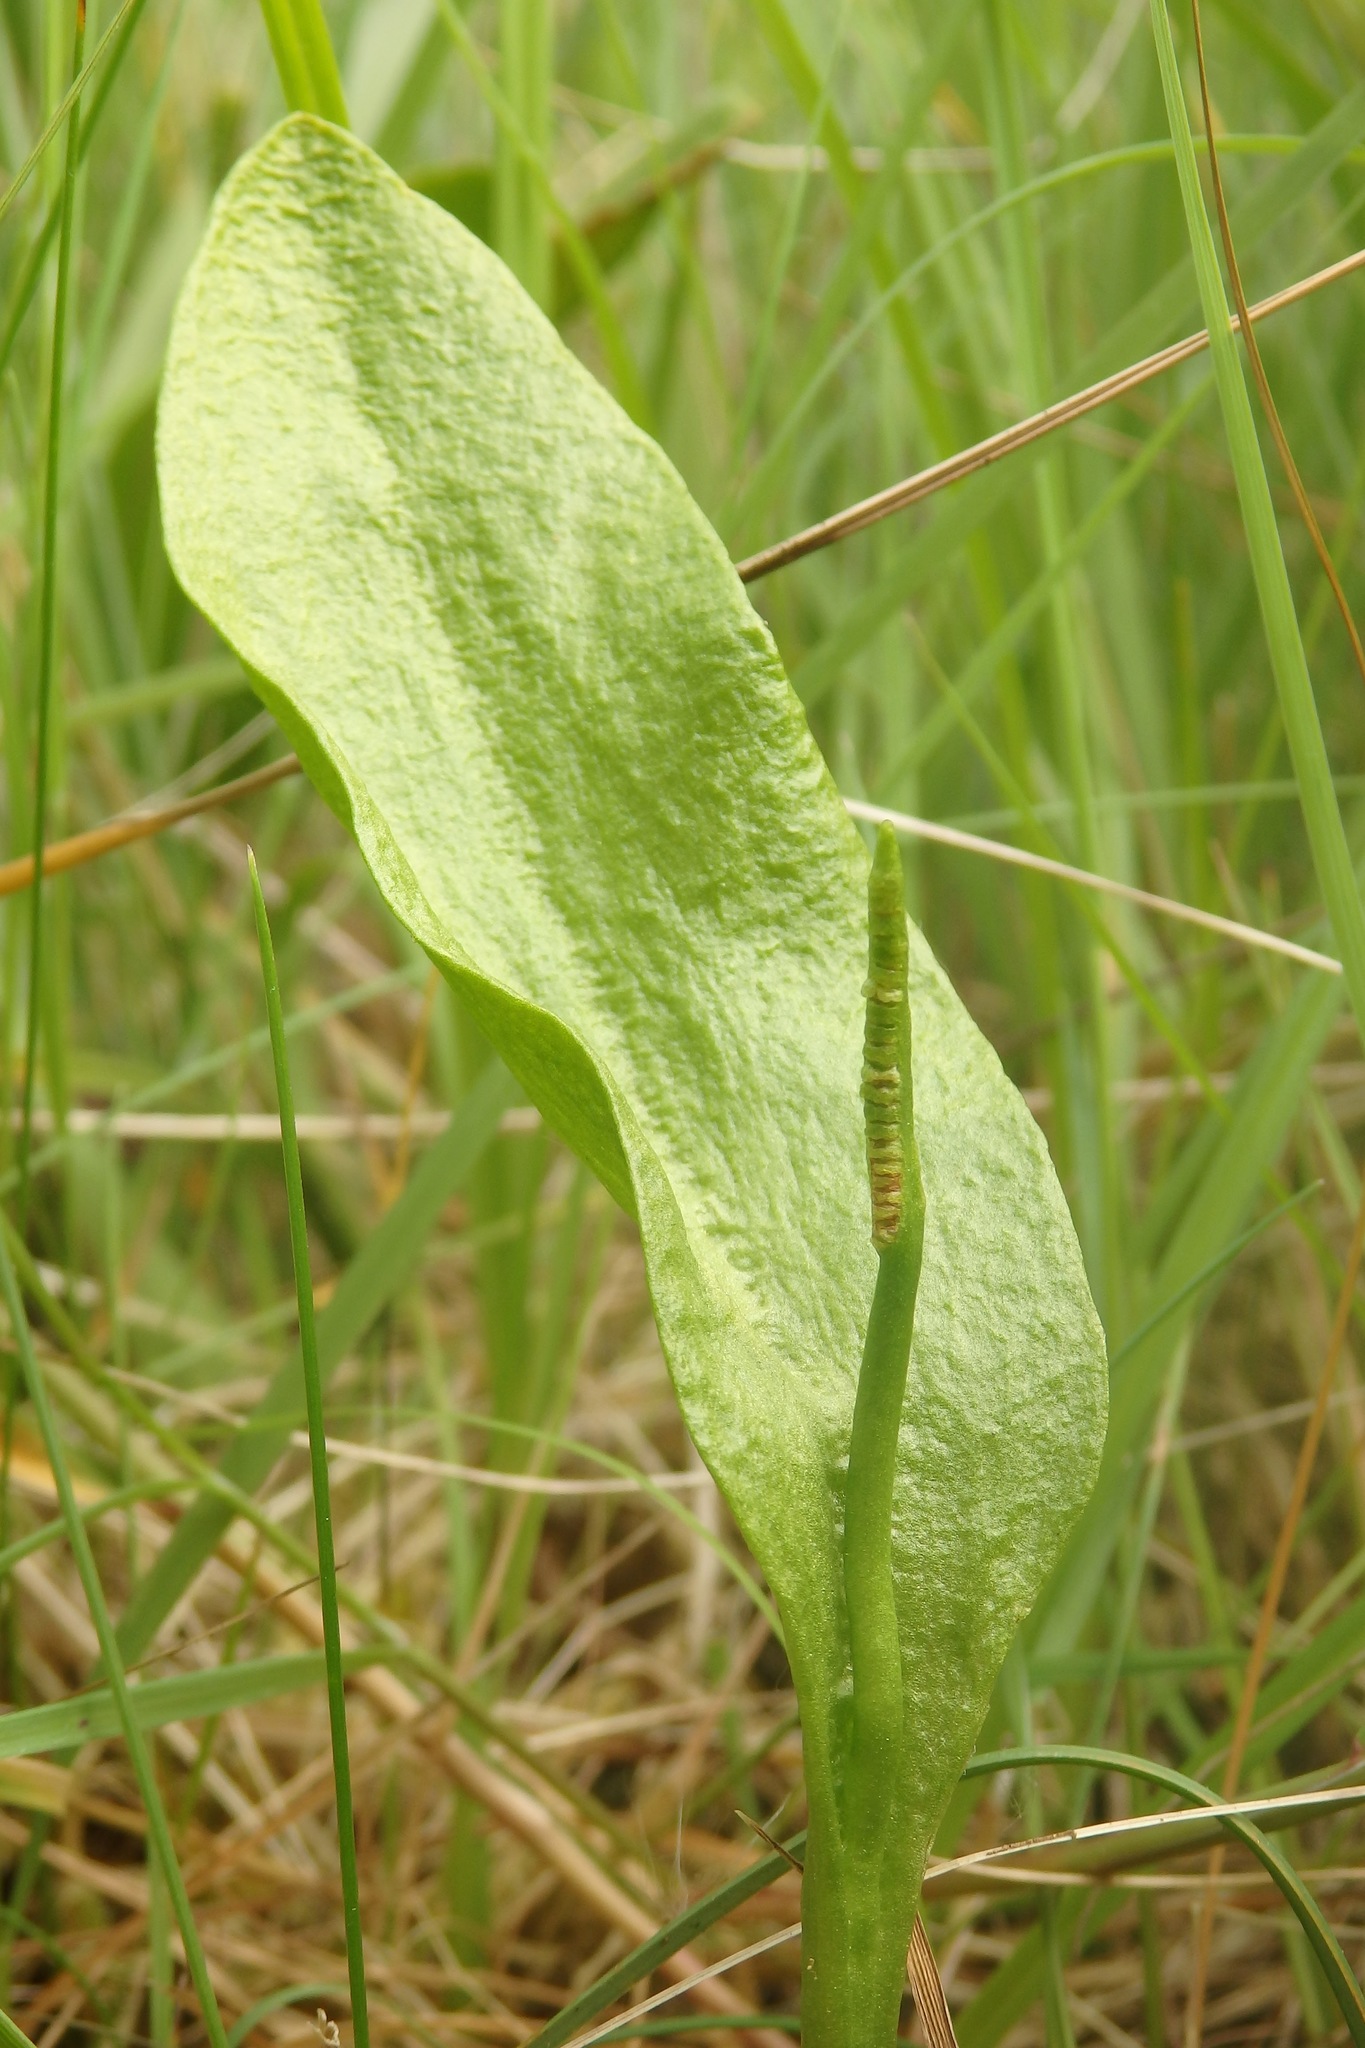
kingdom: Plantae
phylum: Tracheophyta
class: Polypodiopsida
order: Ophioglossales
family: Ophioglossaceae
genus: Ophioglossum
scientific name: Ophioglossum vulgatum
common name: Adder's-tongue
